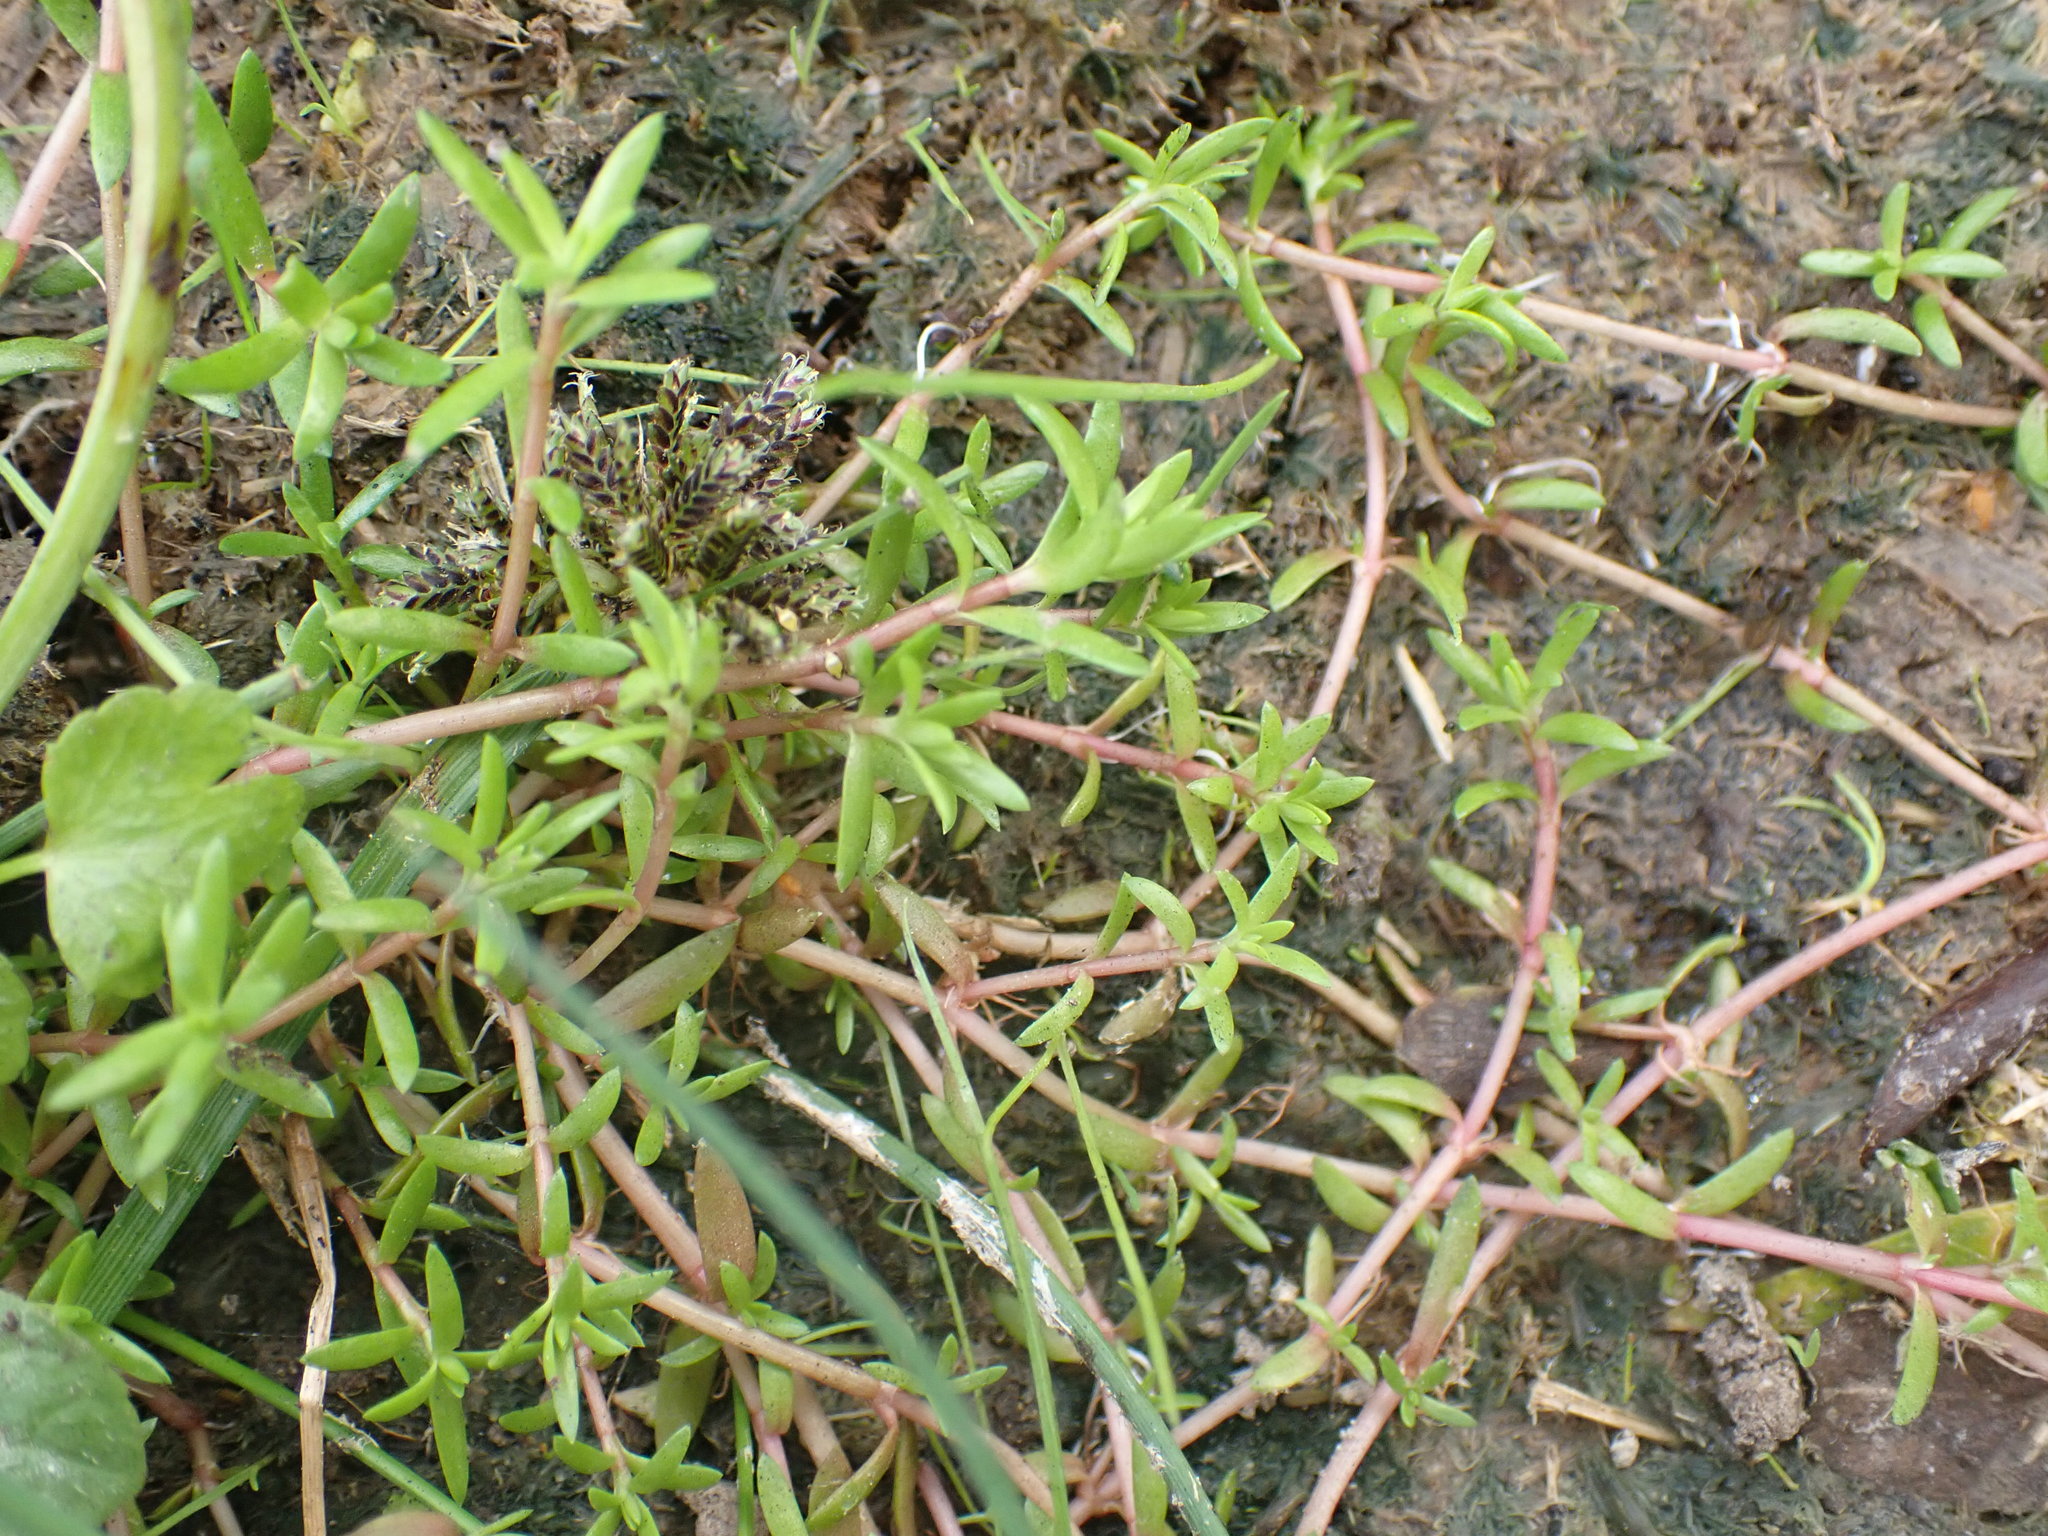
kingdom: Plantae
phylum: Tracheophyta
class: Magnoliopsida
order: Saxifragales
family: Crassulaceae
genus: Crassula
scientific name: Crassula helmsii
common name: New zealand pigmyweed
